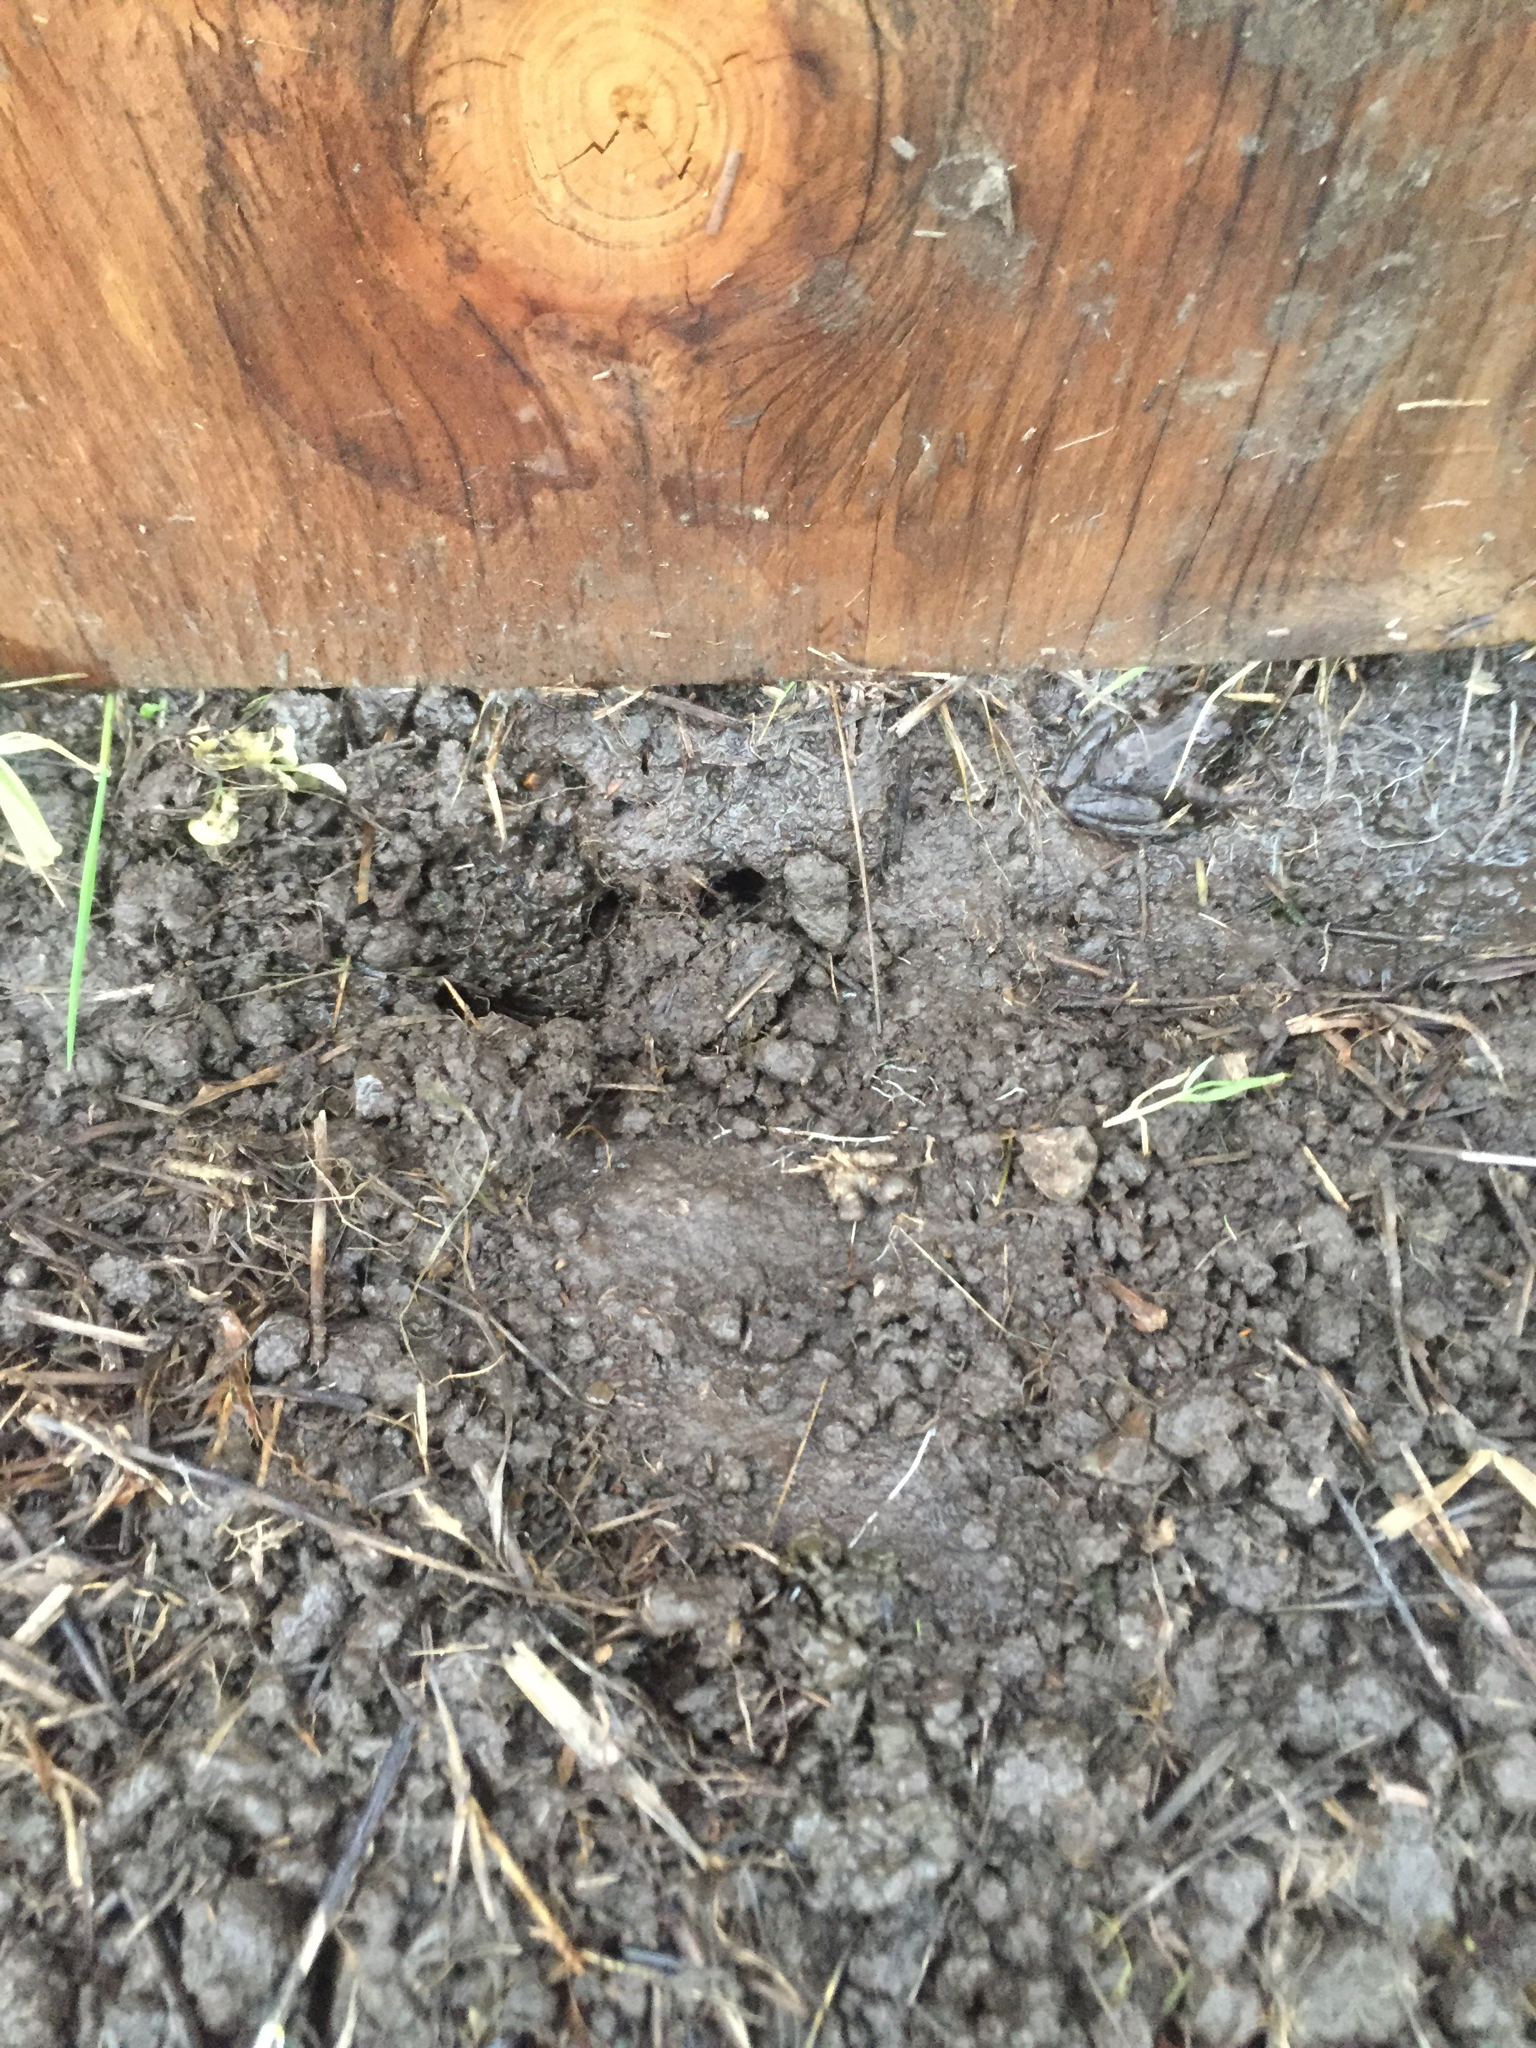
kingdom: Animalia
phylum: Chordata
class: Amphibia
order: Anura
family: Hylidae
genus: Pseudacris
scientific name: Pseudacris regilla
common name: Pacific chorus frog
